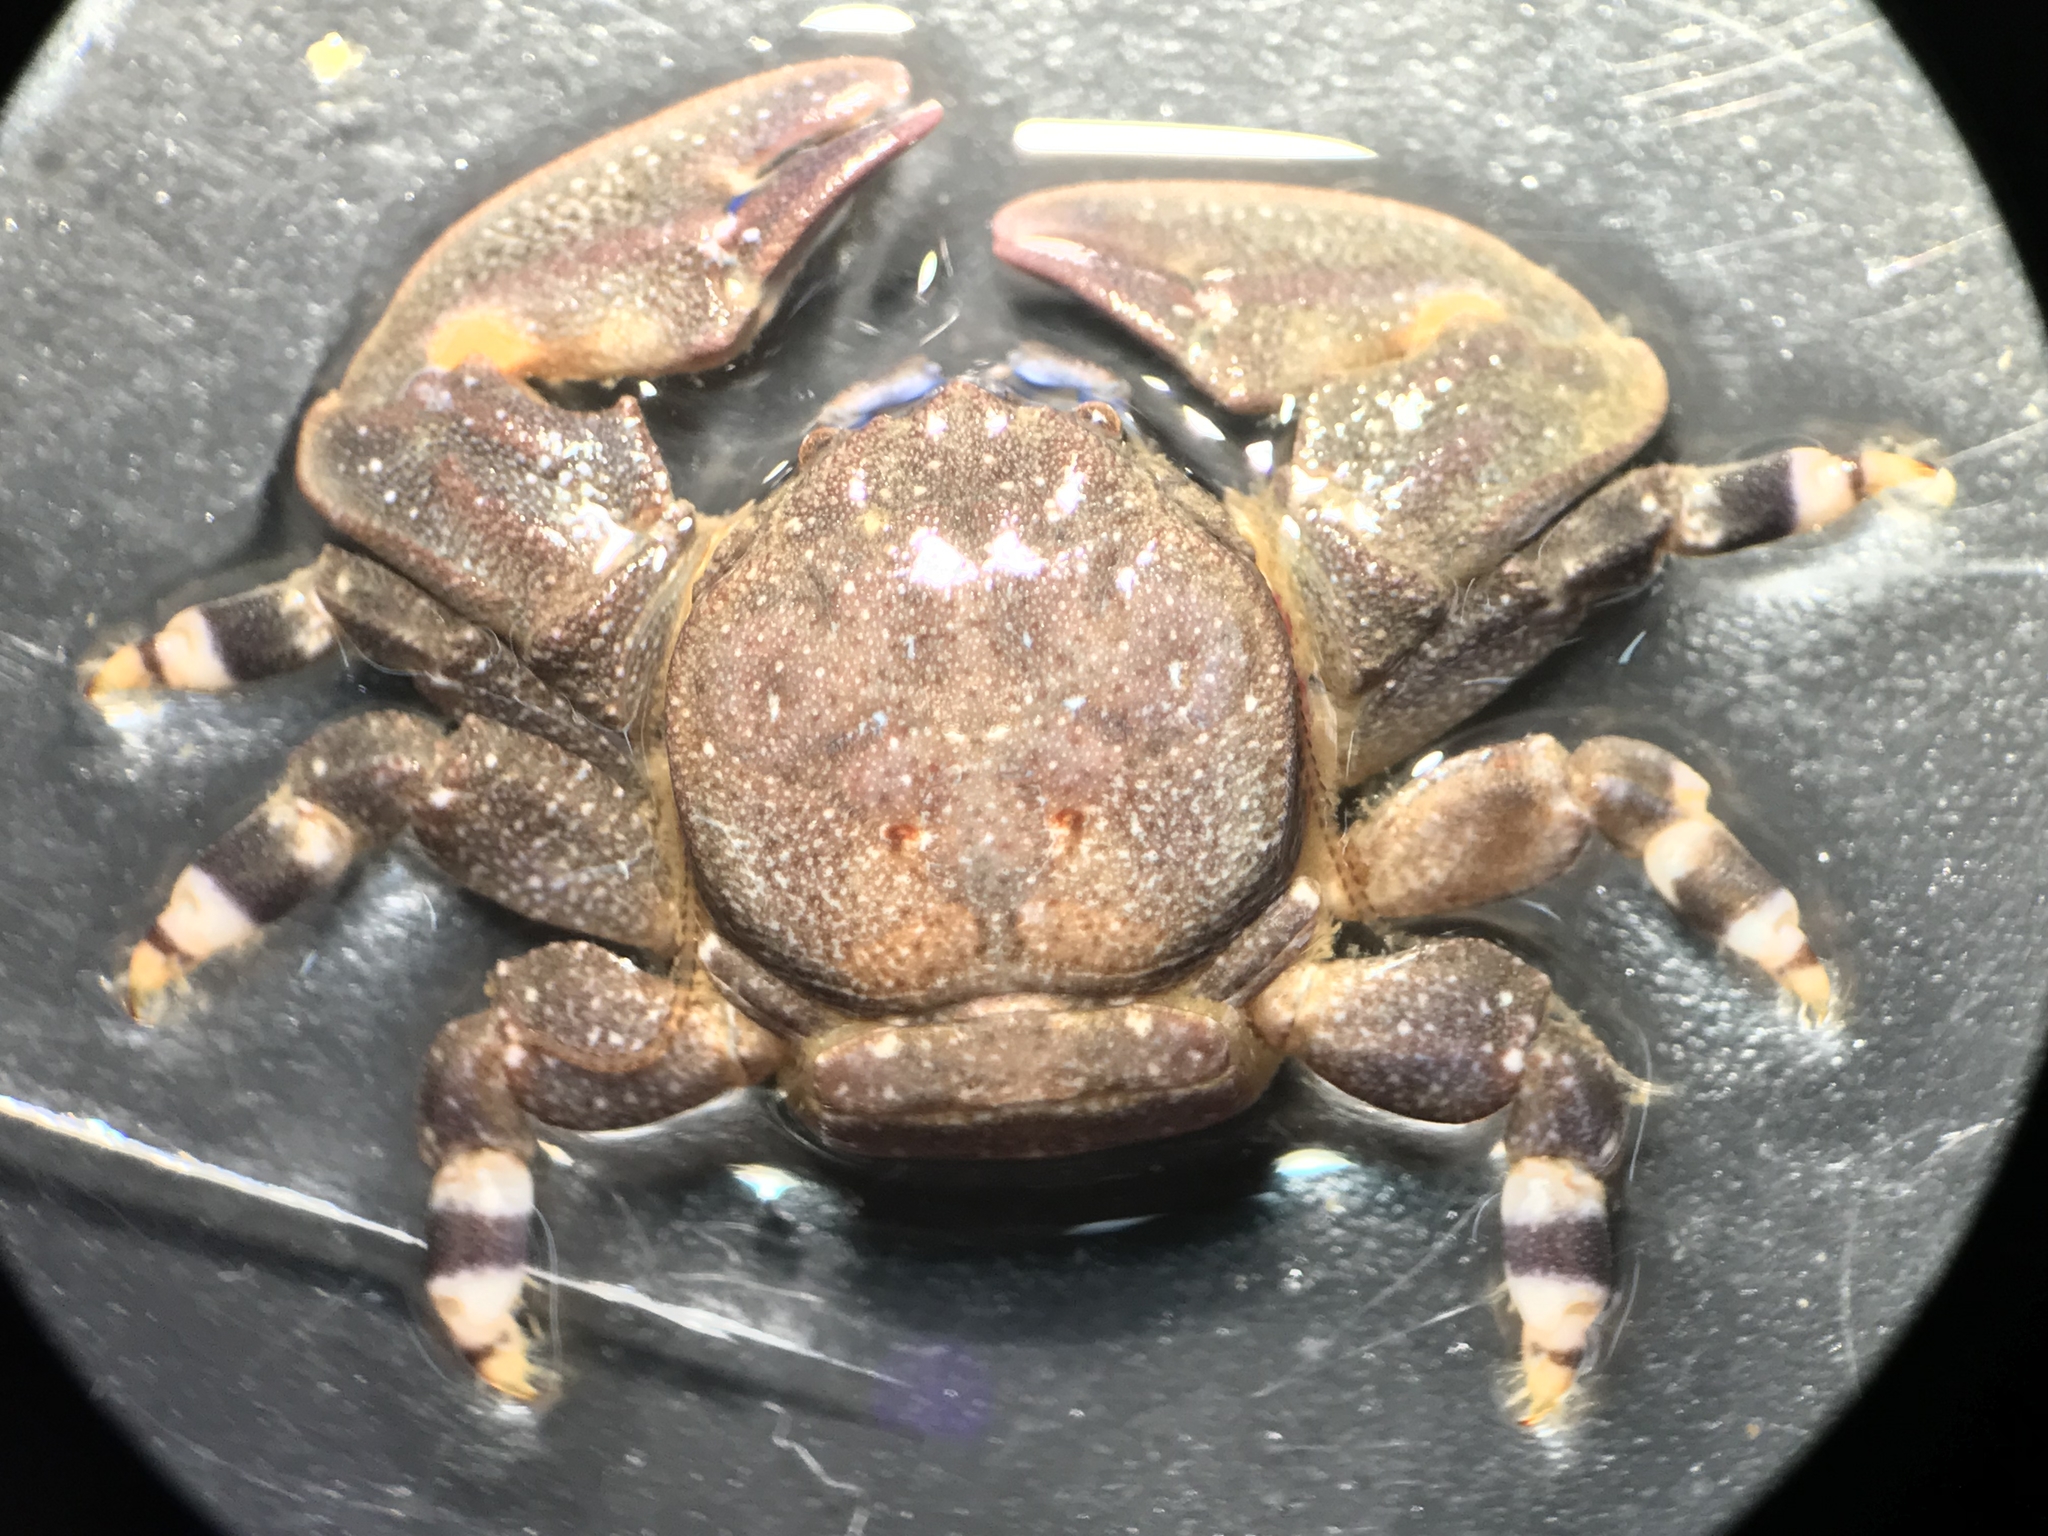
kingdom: Animalia
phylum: Arthropoda
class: Malacostraca
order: Decapoda
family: Porcellanidae
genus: Petrolisthes
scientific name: Petrolisthes angulosus
